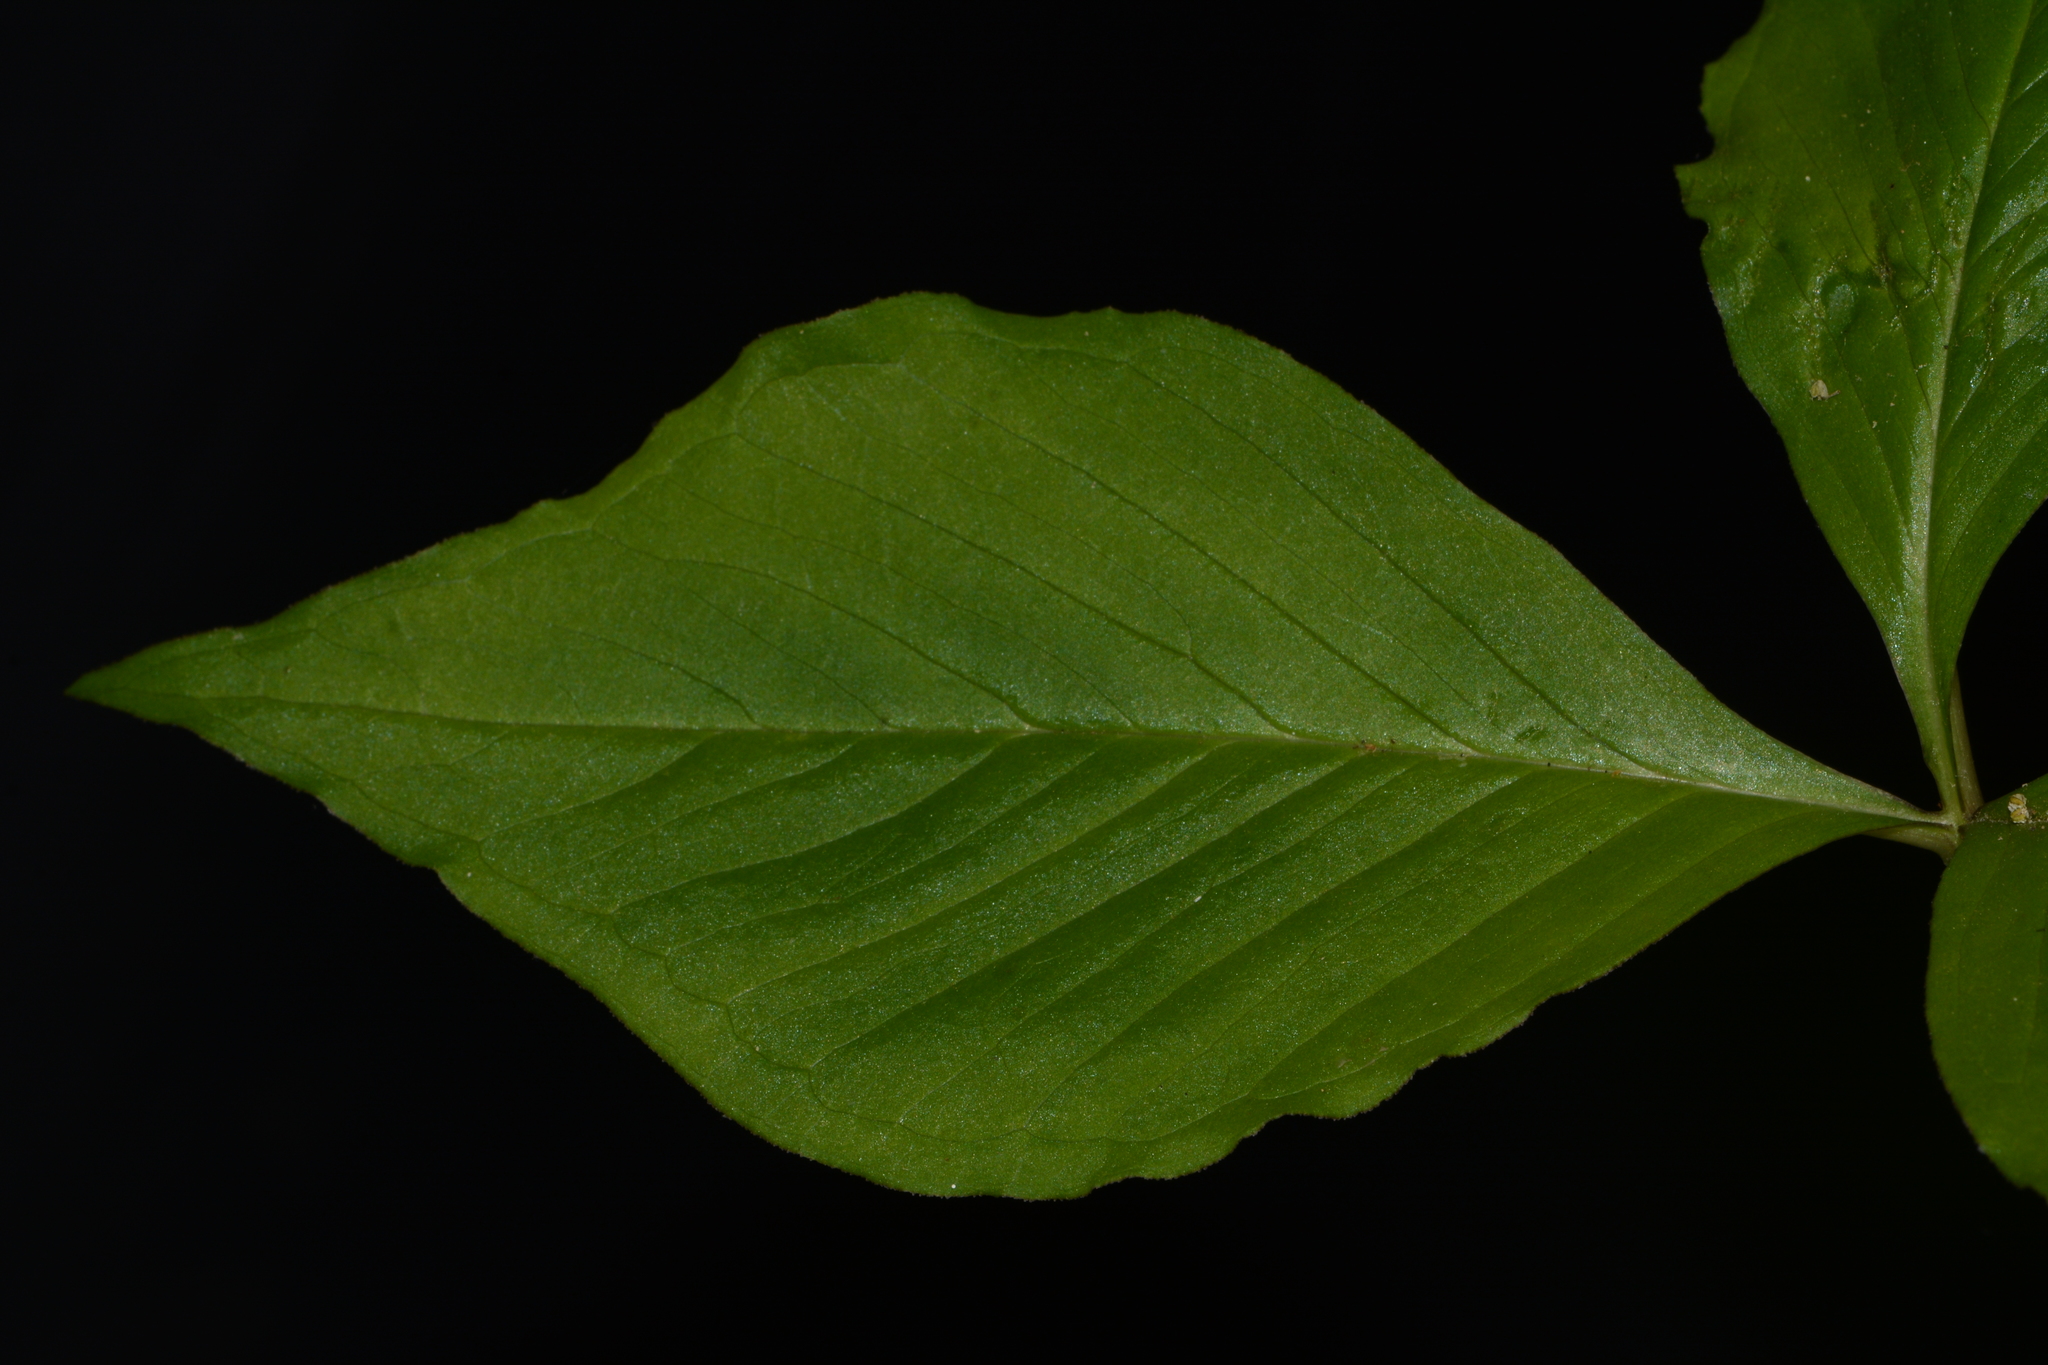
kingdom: Plantae
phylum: Tracheophyta
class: Liliopsida
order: Alismatales
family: Araceae
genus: Arisaema
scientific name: Arisaema pusillum
